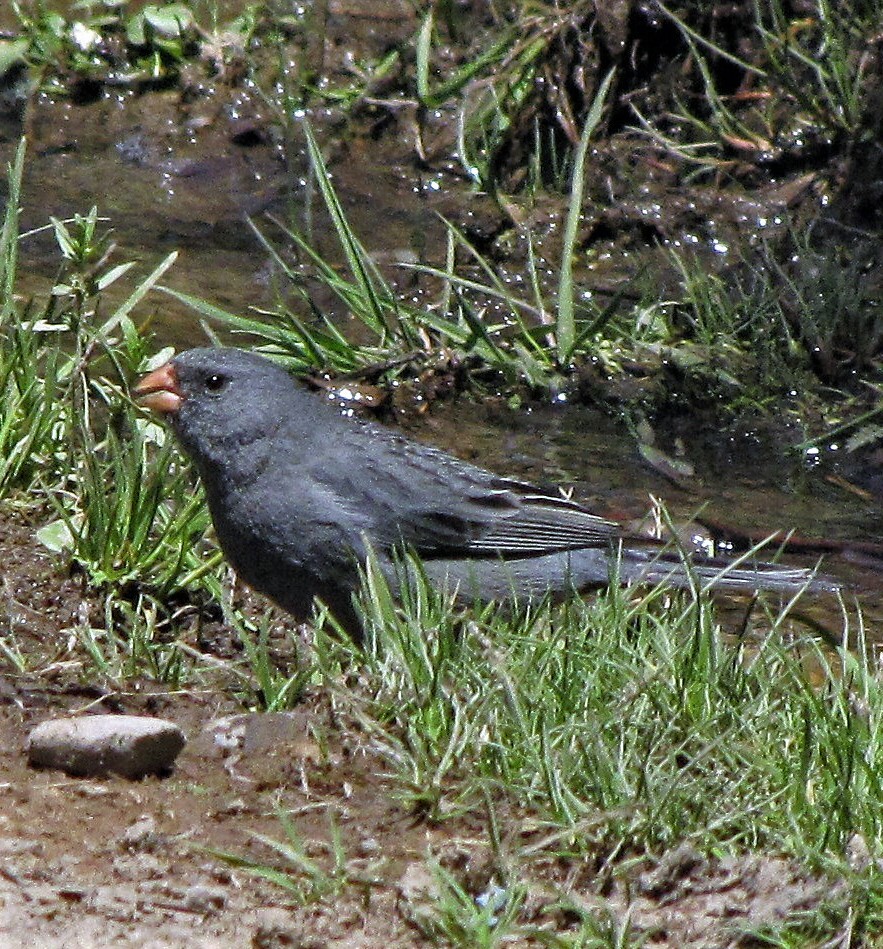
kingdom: Animalia
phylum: Chordata
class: Aves
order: Passeriformes
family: Thraupidae
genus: Catamenia
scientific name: Catamenia inornata
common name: Plain-colored seedeater
